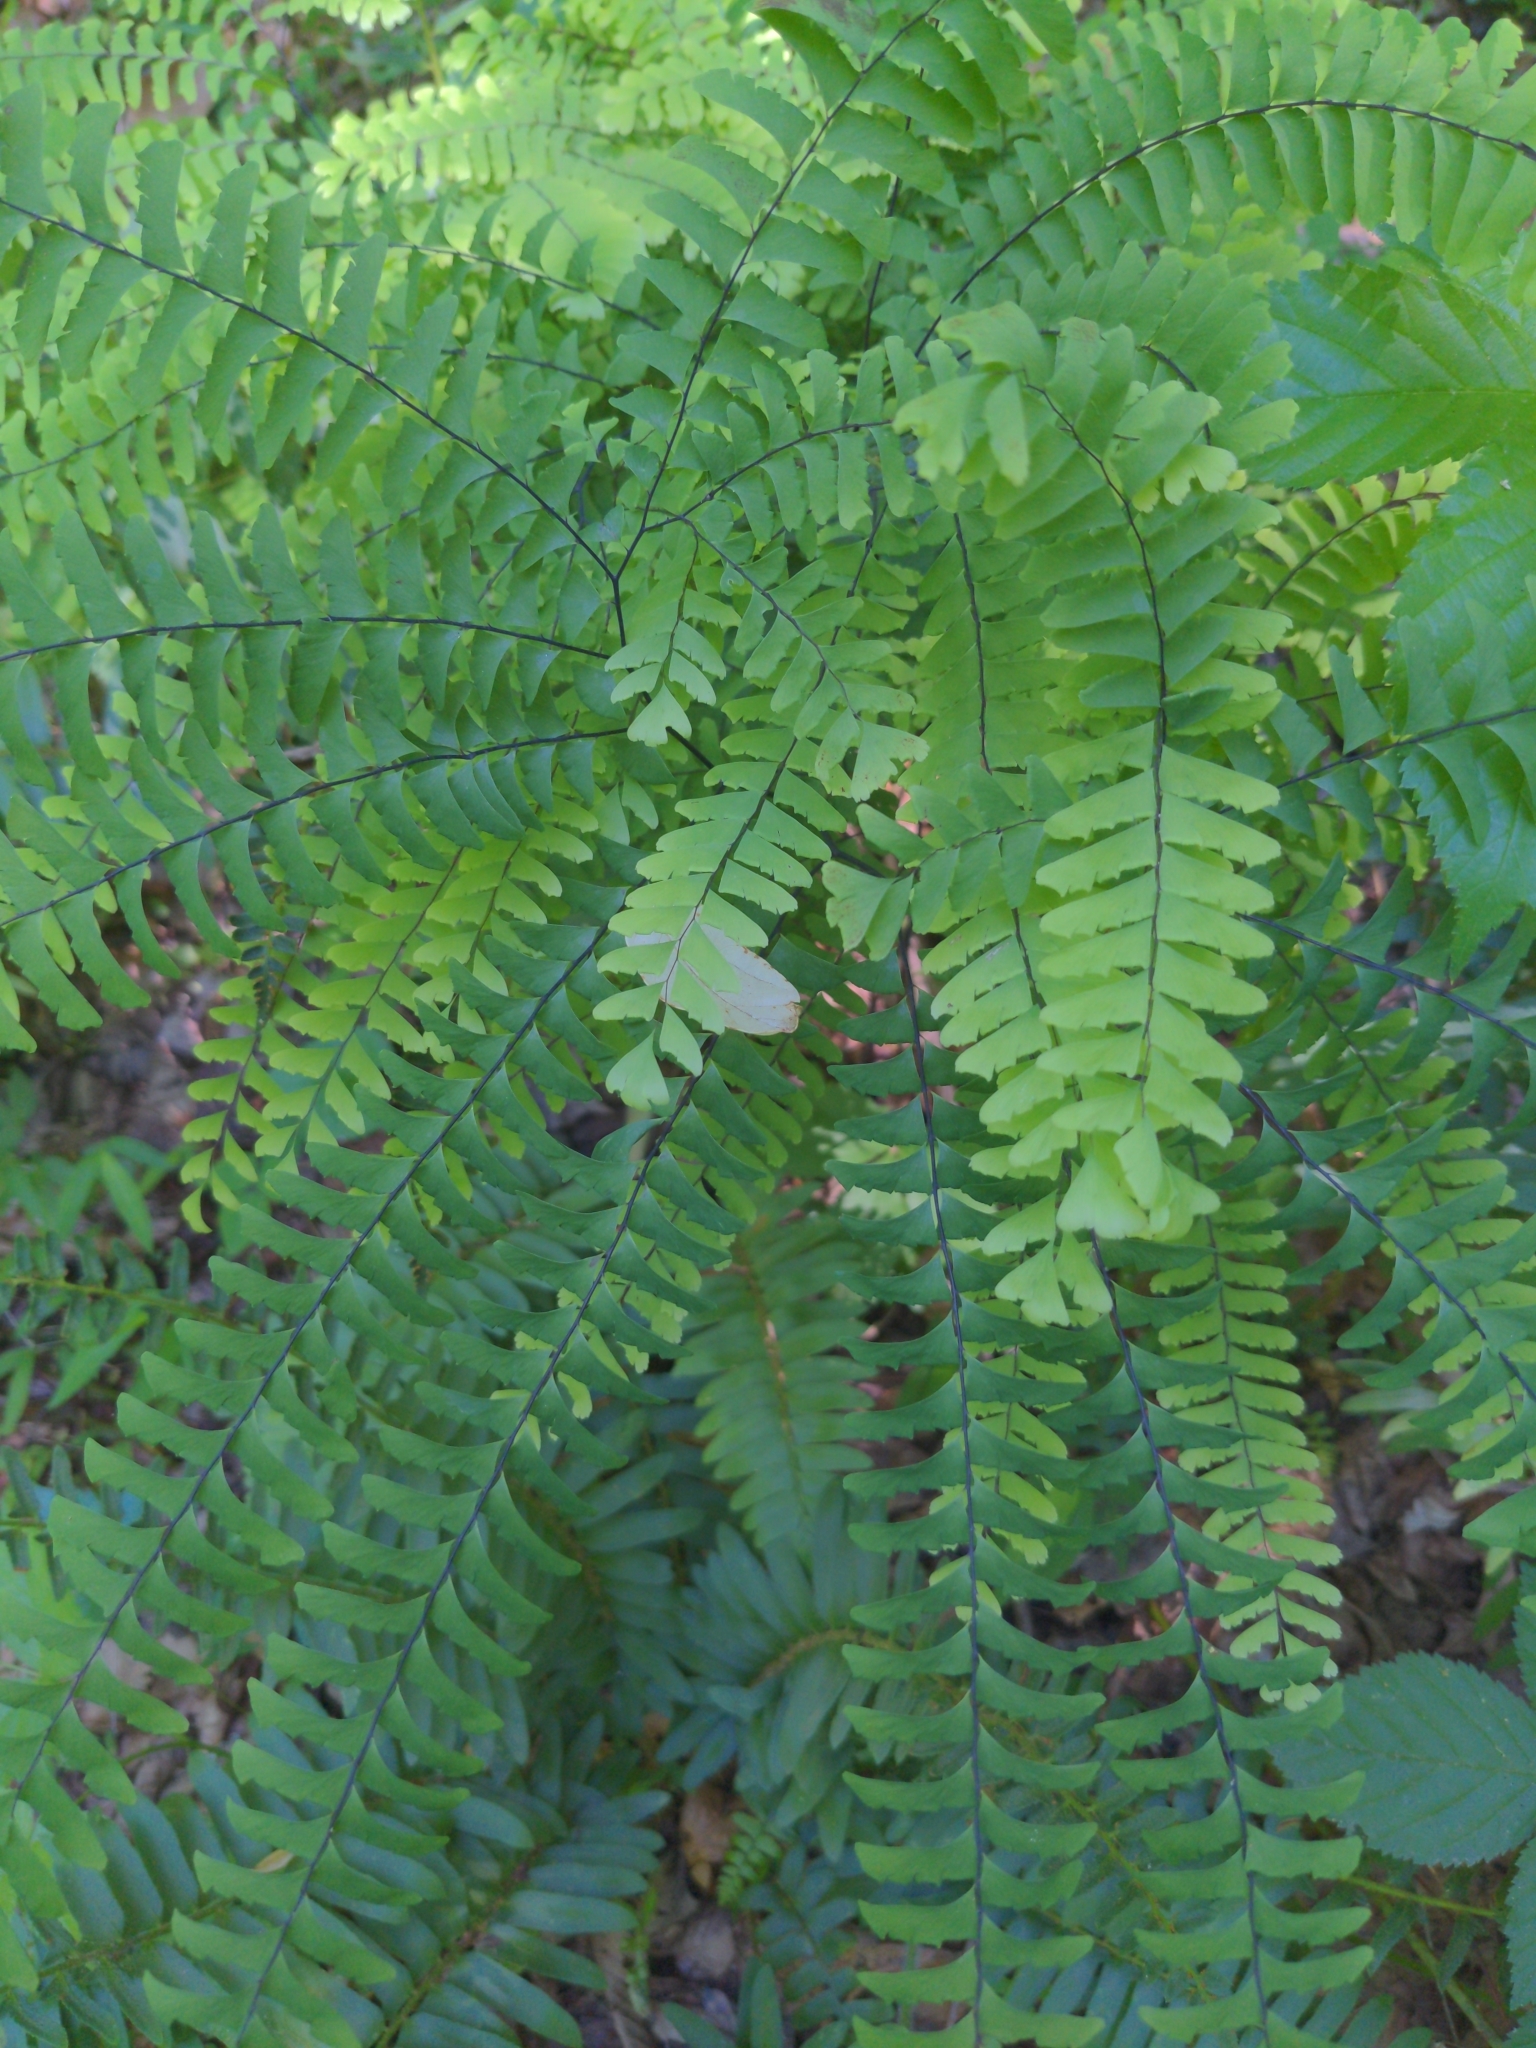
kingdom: Plantae
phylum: Tracheophyta
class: Polypodiopsida
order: Polypodiales
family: Pteridaceae
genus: Adiantum
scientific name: Adiantum pedatum
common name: Five-finger fern
